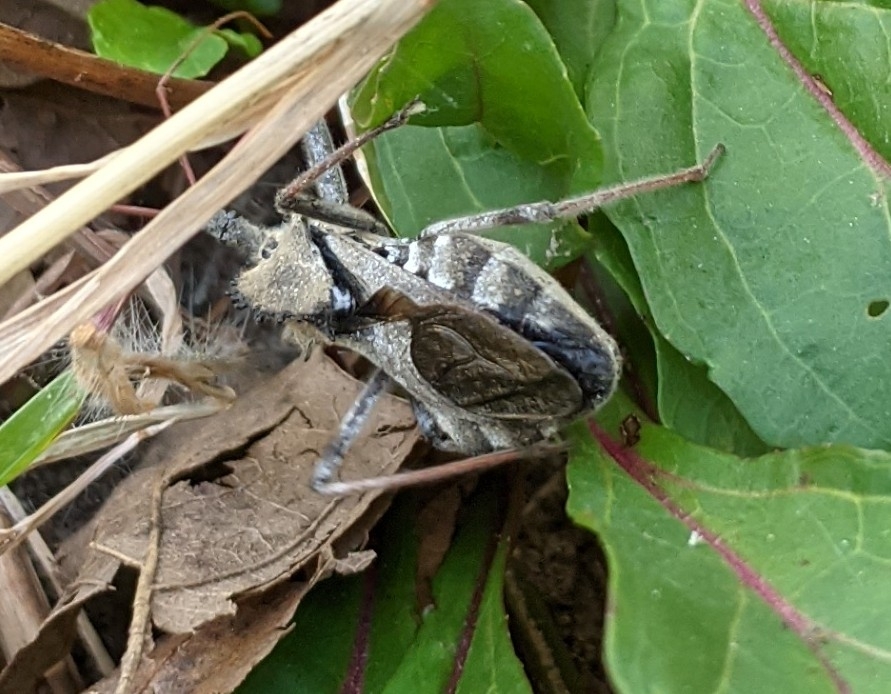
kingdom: Animalia
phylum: Arthropoda
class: Insecta
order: Hemiptera
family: Reduviidae
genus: Arilus
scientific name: Arilus cristatus
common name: North american wheel bug
